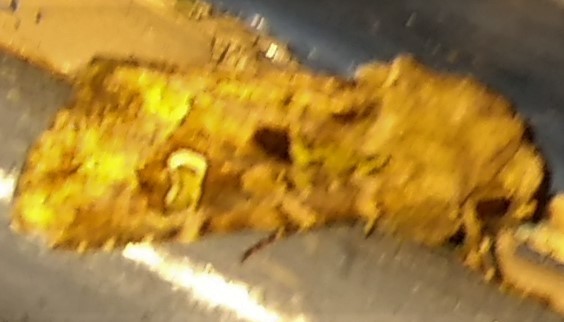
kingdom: Animalia
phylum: Arthropoda
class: Insecta
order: Lepidoptera
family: Noctuidae
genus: Lacinipolia
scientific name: Lacinipolia renigera
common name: Kidney-spotted minor
